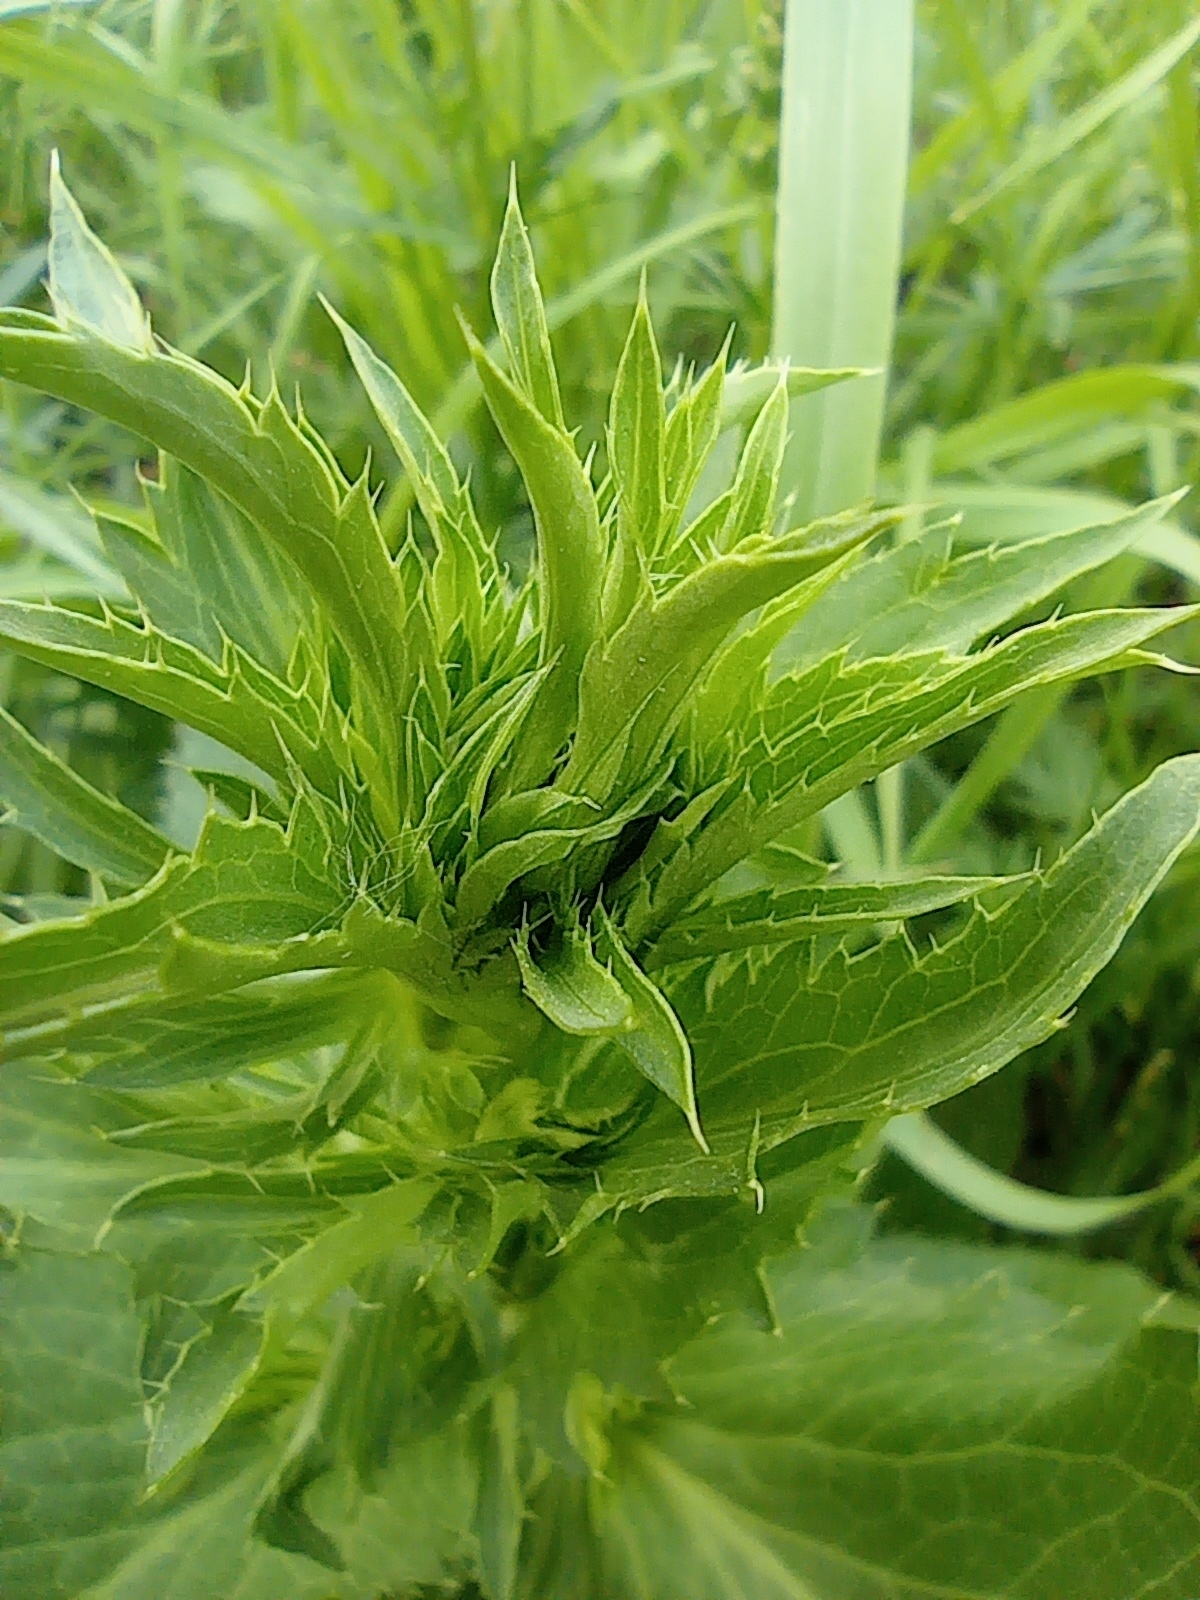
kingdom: Plantae
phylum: Tracheophyta
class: Magnoliopsida
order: Apiales
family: Apiaceae
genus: Eryngium
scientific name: Eryngium planum
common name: Blue eryngo
